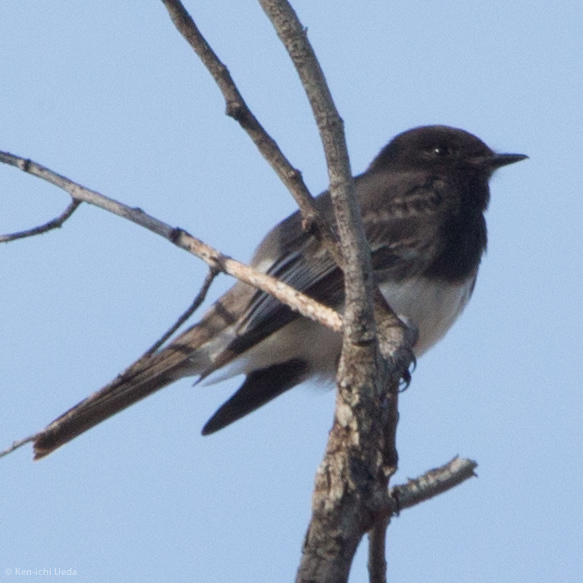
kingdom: Animalia
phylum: Chordata
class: Aves
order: Passeriformes
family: Tyrannidae
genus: Sayornis
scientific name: Sayornis nigricans
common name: Black phoebe
